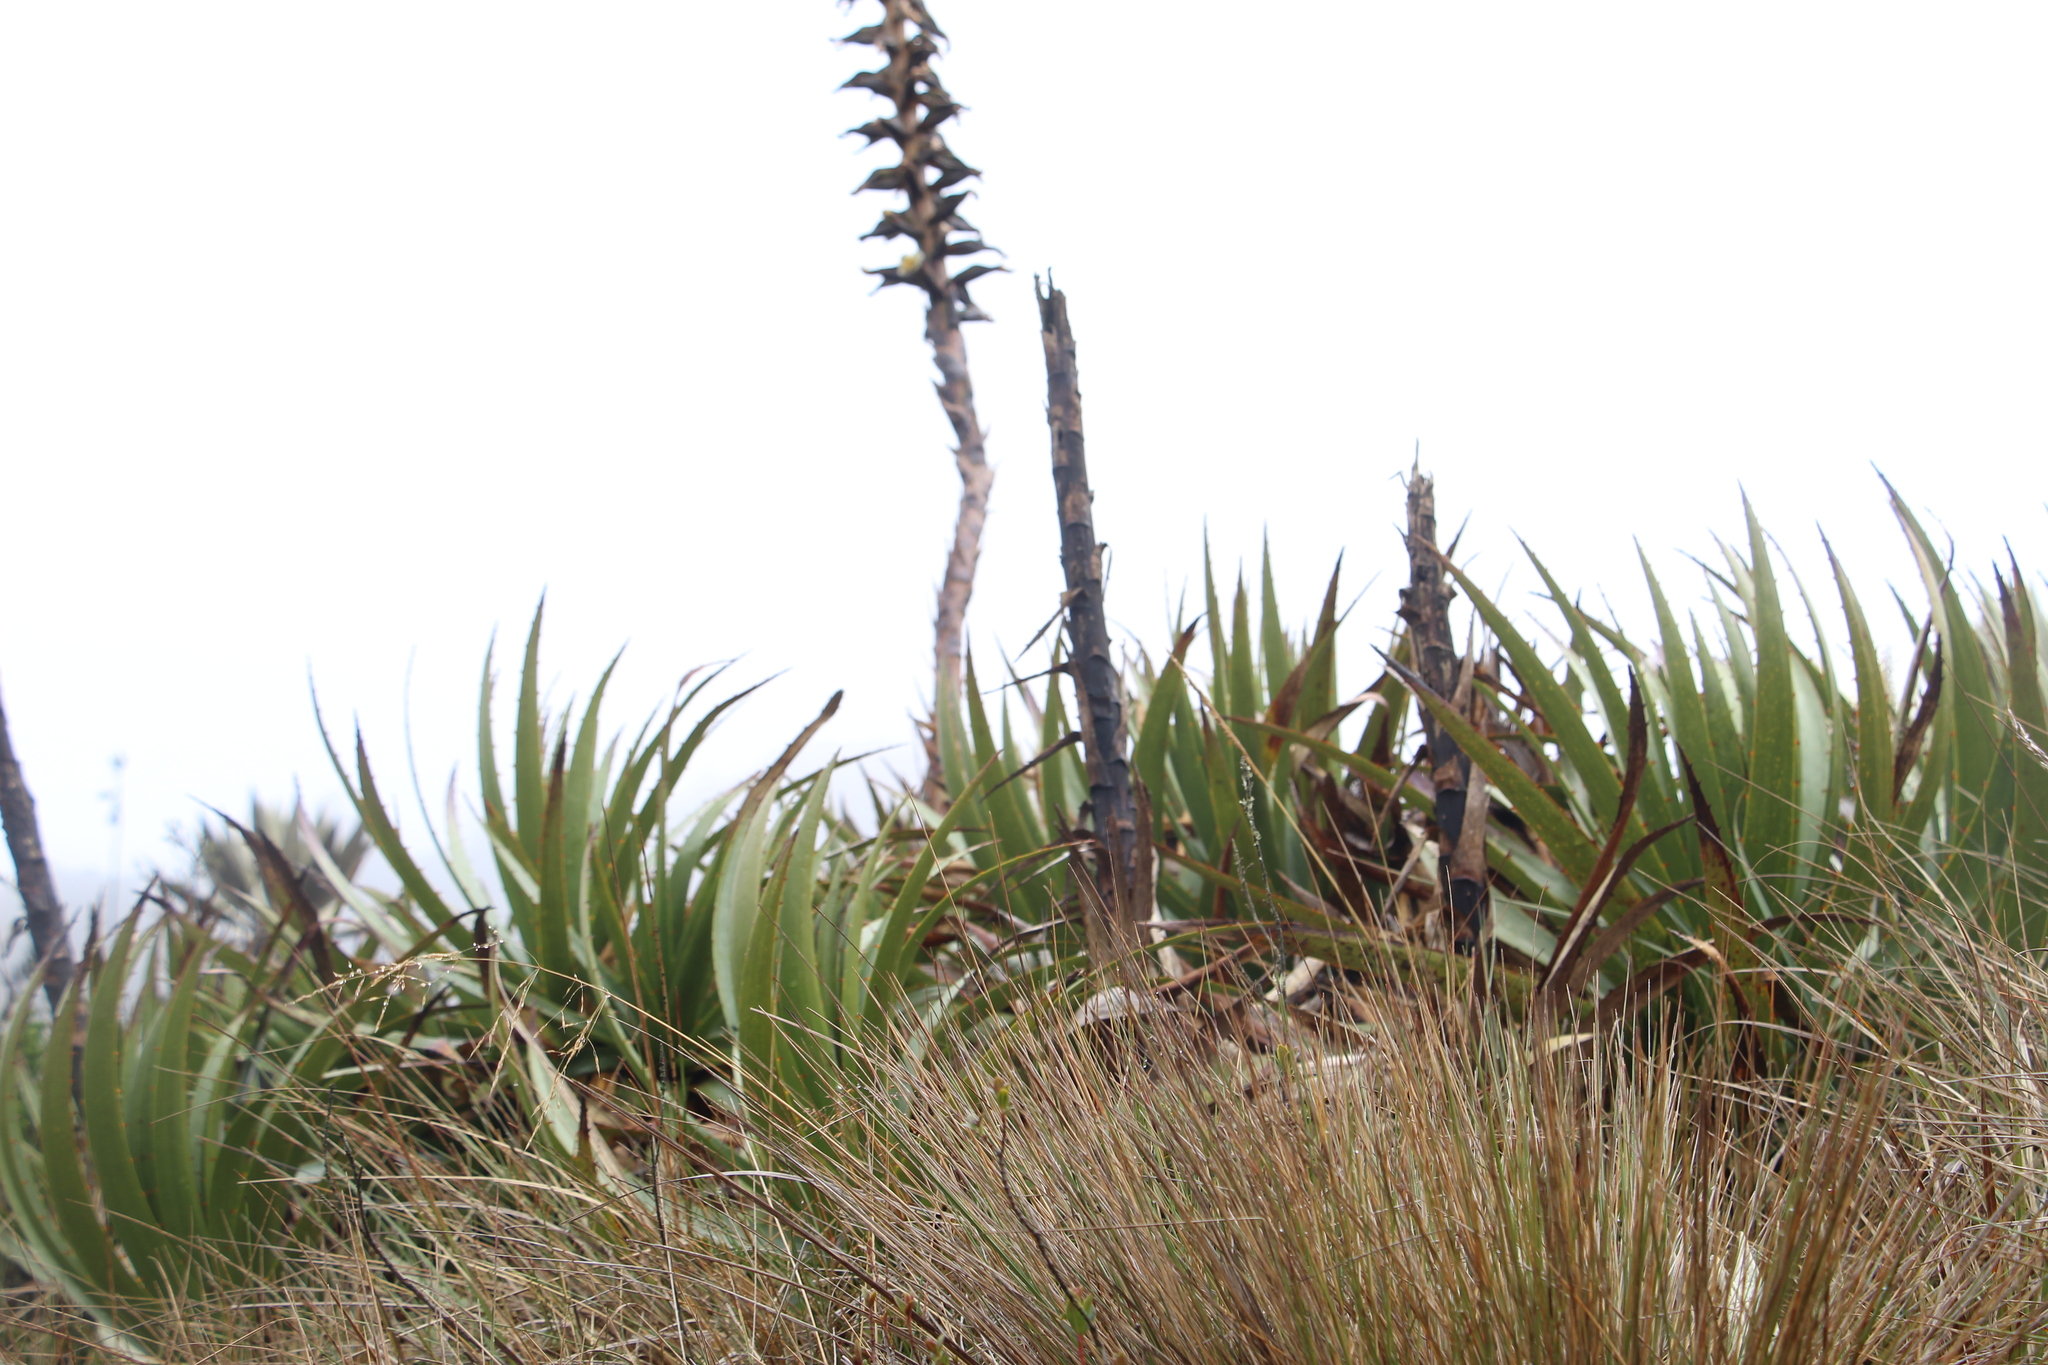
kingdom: Plantae
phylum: Tracheophyta
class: Liliopsida
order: Poales
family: Bromeliaceae
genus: Puya
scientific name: Puya nitida
